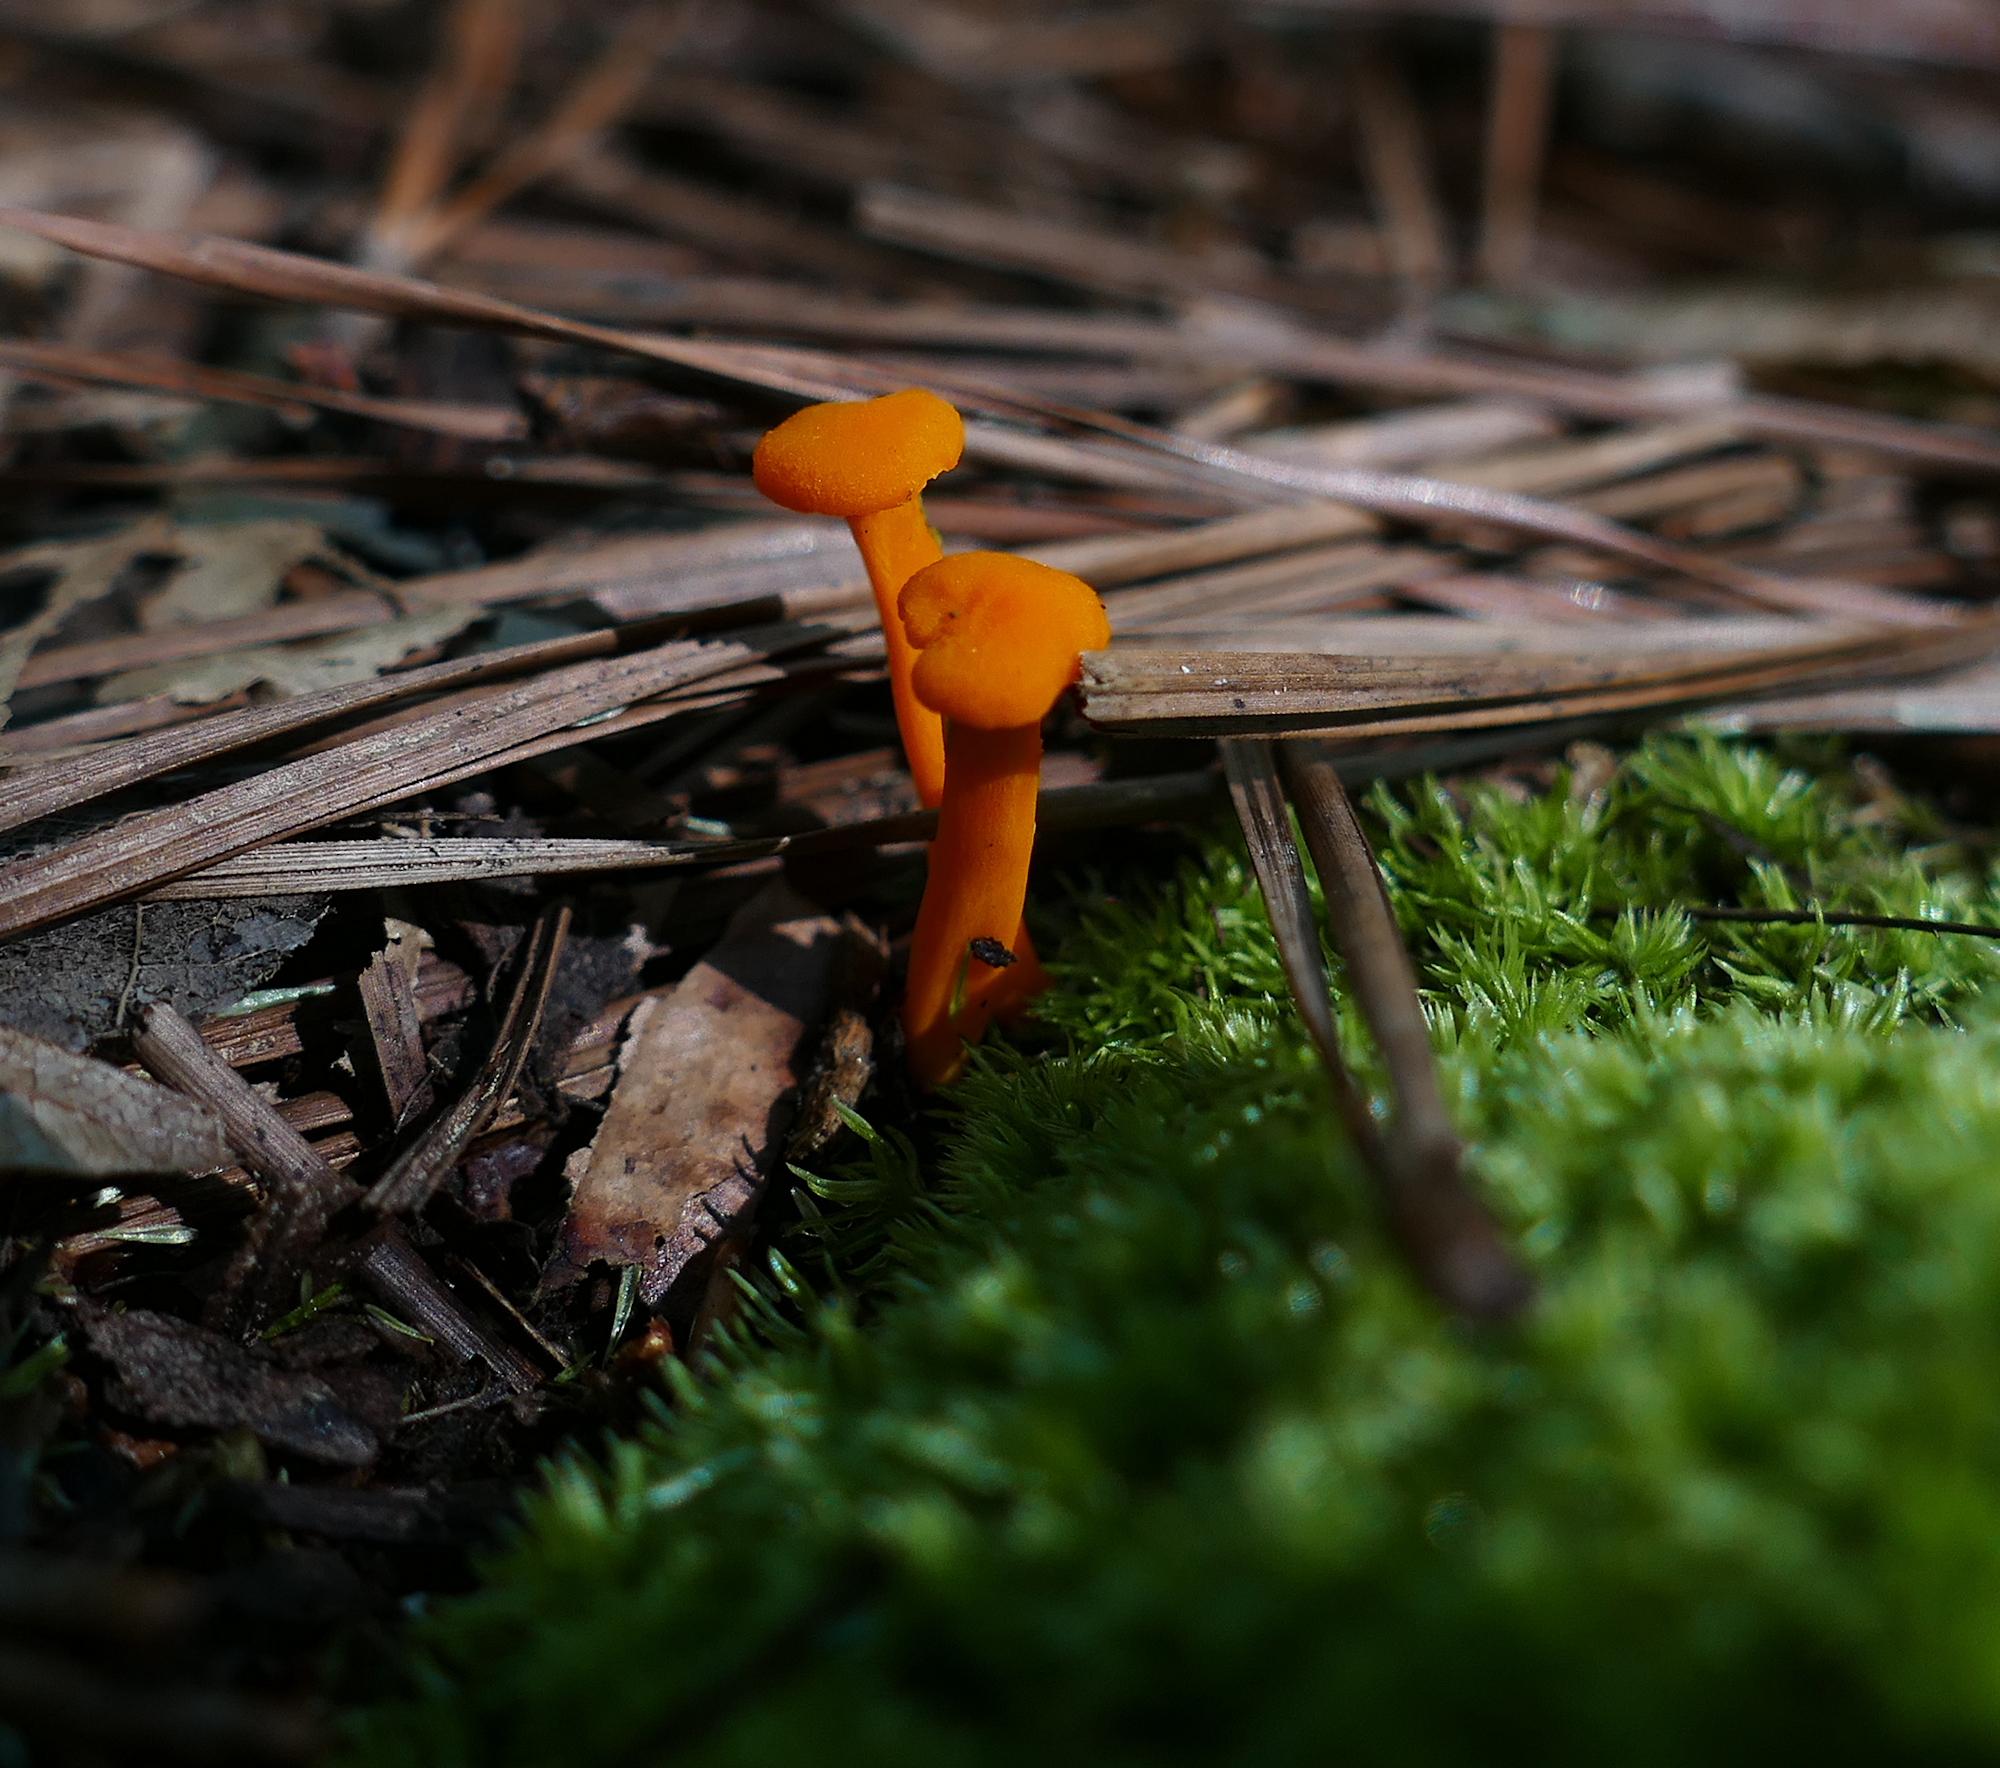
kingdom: Fungi
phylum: Basidiomycota
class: Agaricomycetes
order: Cantharellales
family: Hydnaceae
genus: Cantharellus
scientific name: Cantharellus cinnabarinus
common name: Cinnabar chanterelle
